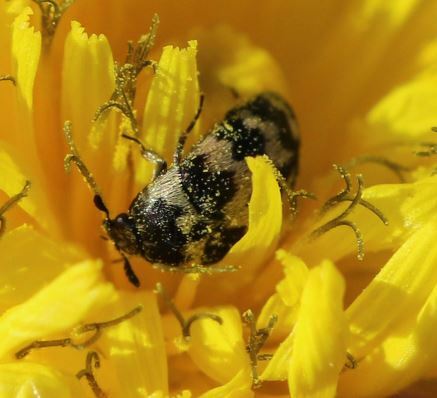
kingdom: Animalia
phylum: Arthropoda
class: Insecta
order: Coleoptera
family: Dermestidae
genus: Attagenus
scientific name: Attagenus trifasciatus
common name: Carpet beetle
